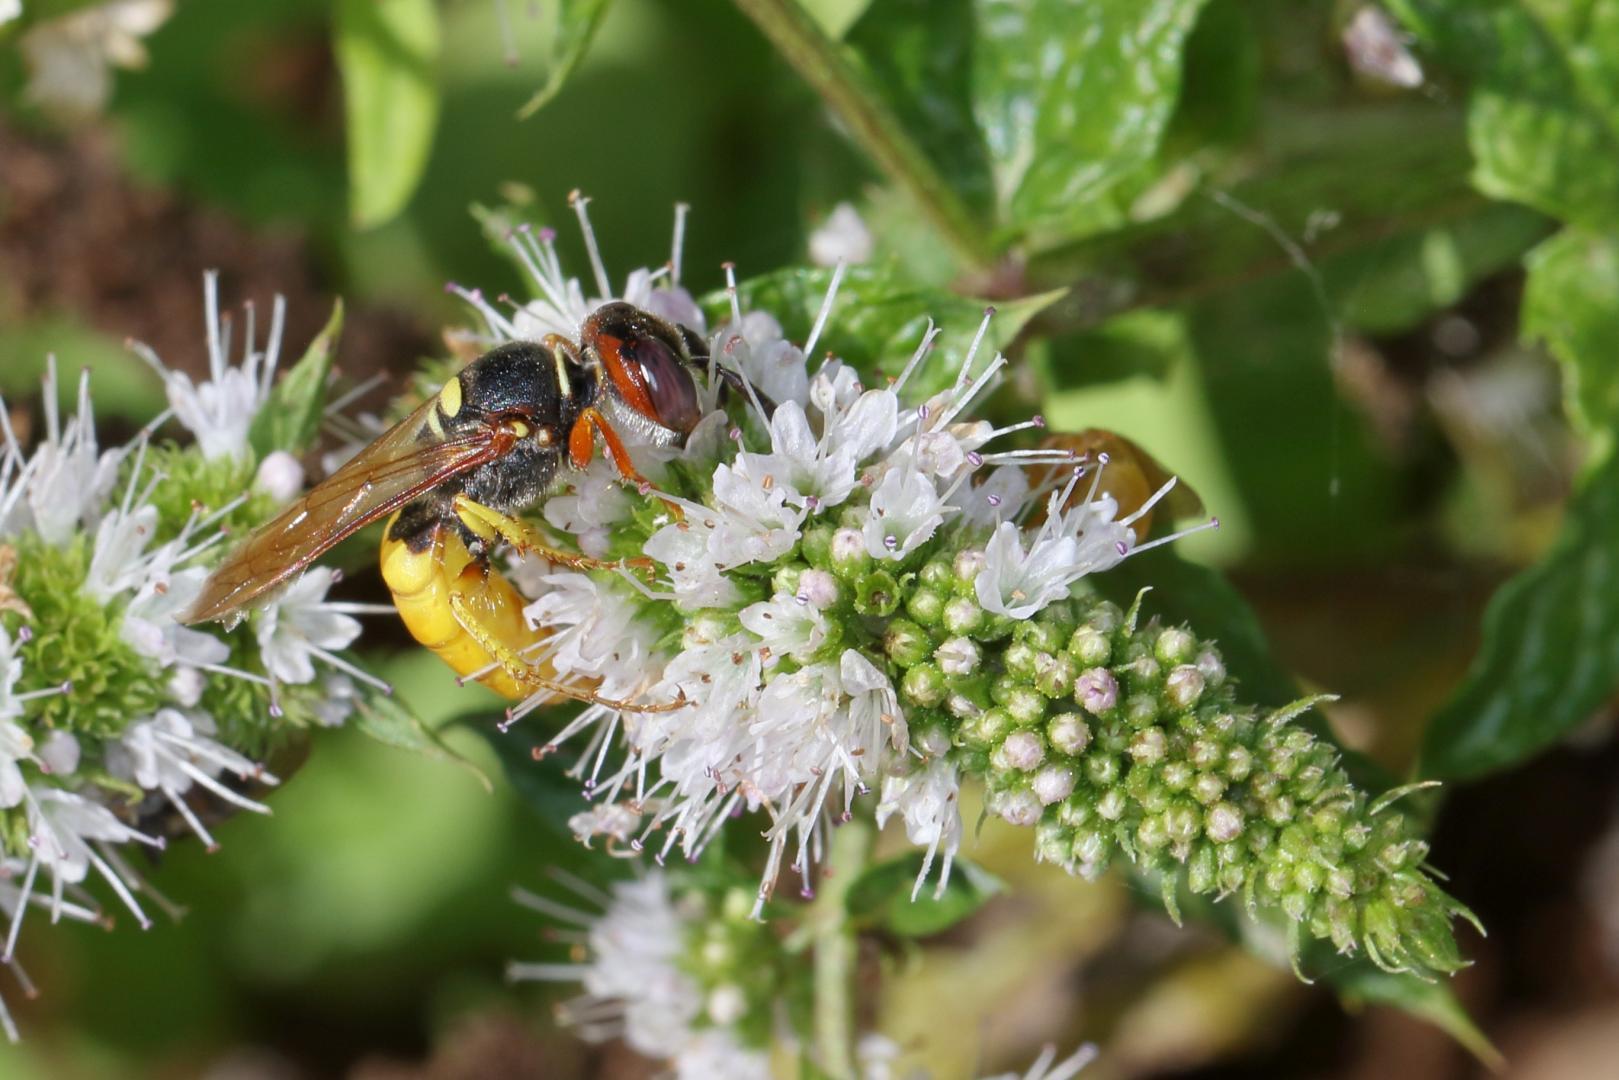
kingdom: Animalia
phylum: Arthropoda
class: Insecta
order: Hymenoptera
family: Crabronidae
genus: Philanthus
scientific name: Philanthus triangulum
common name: Bee wolf
